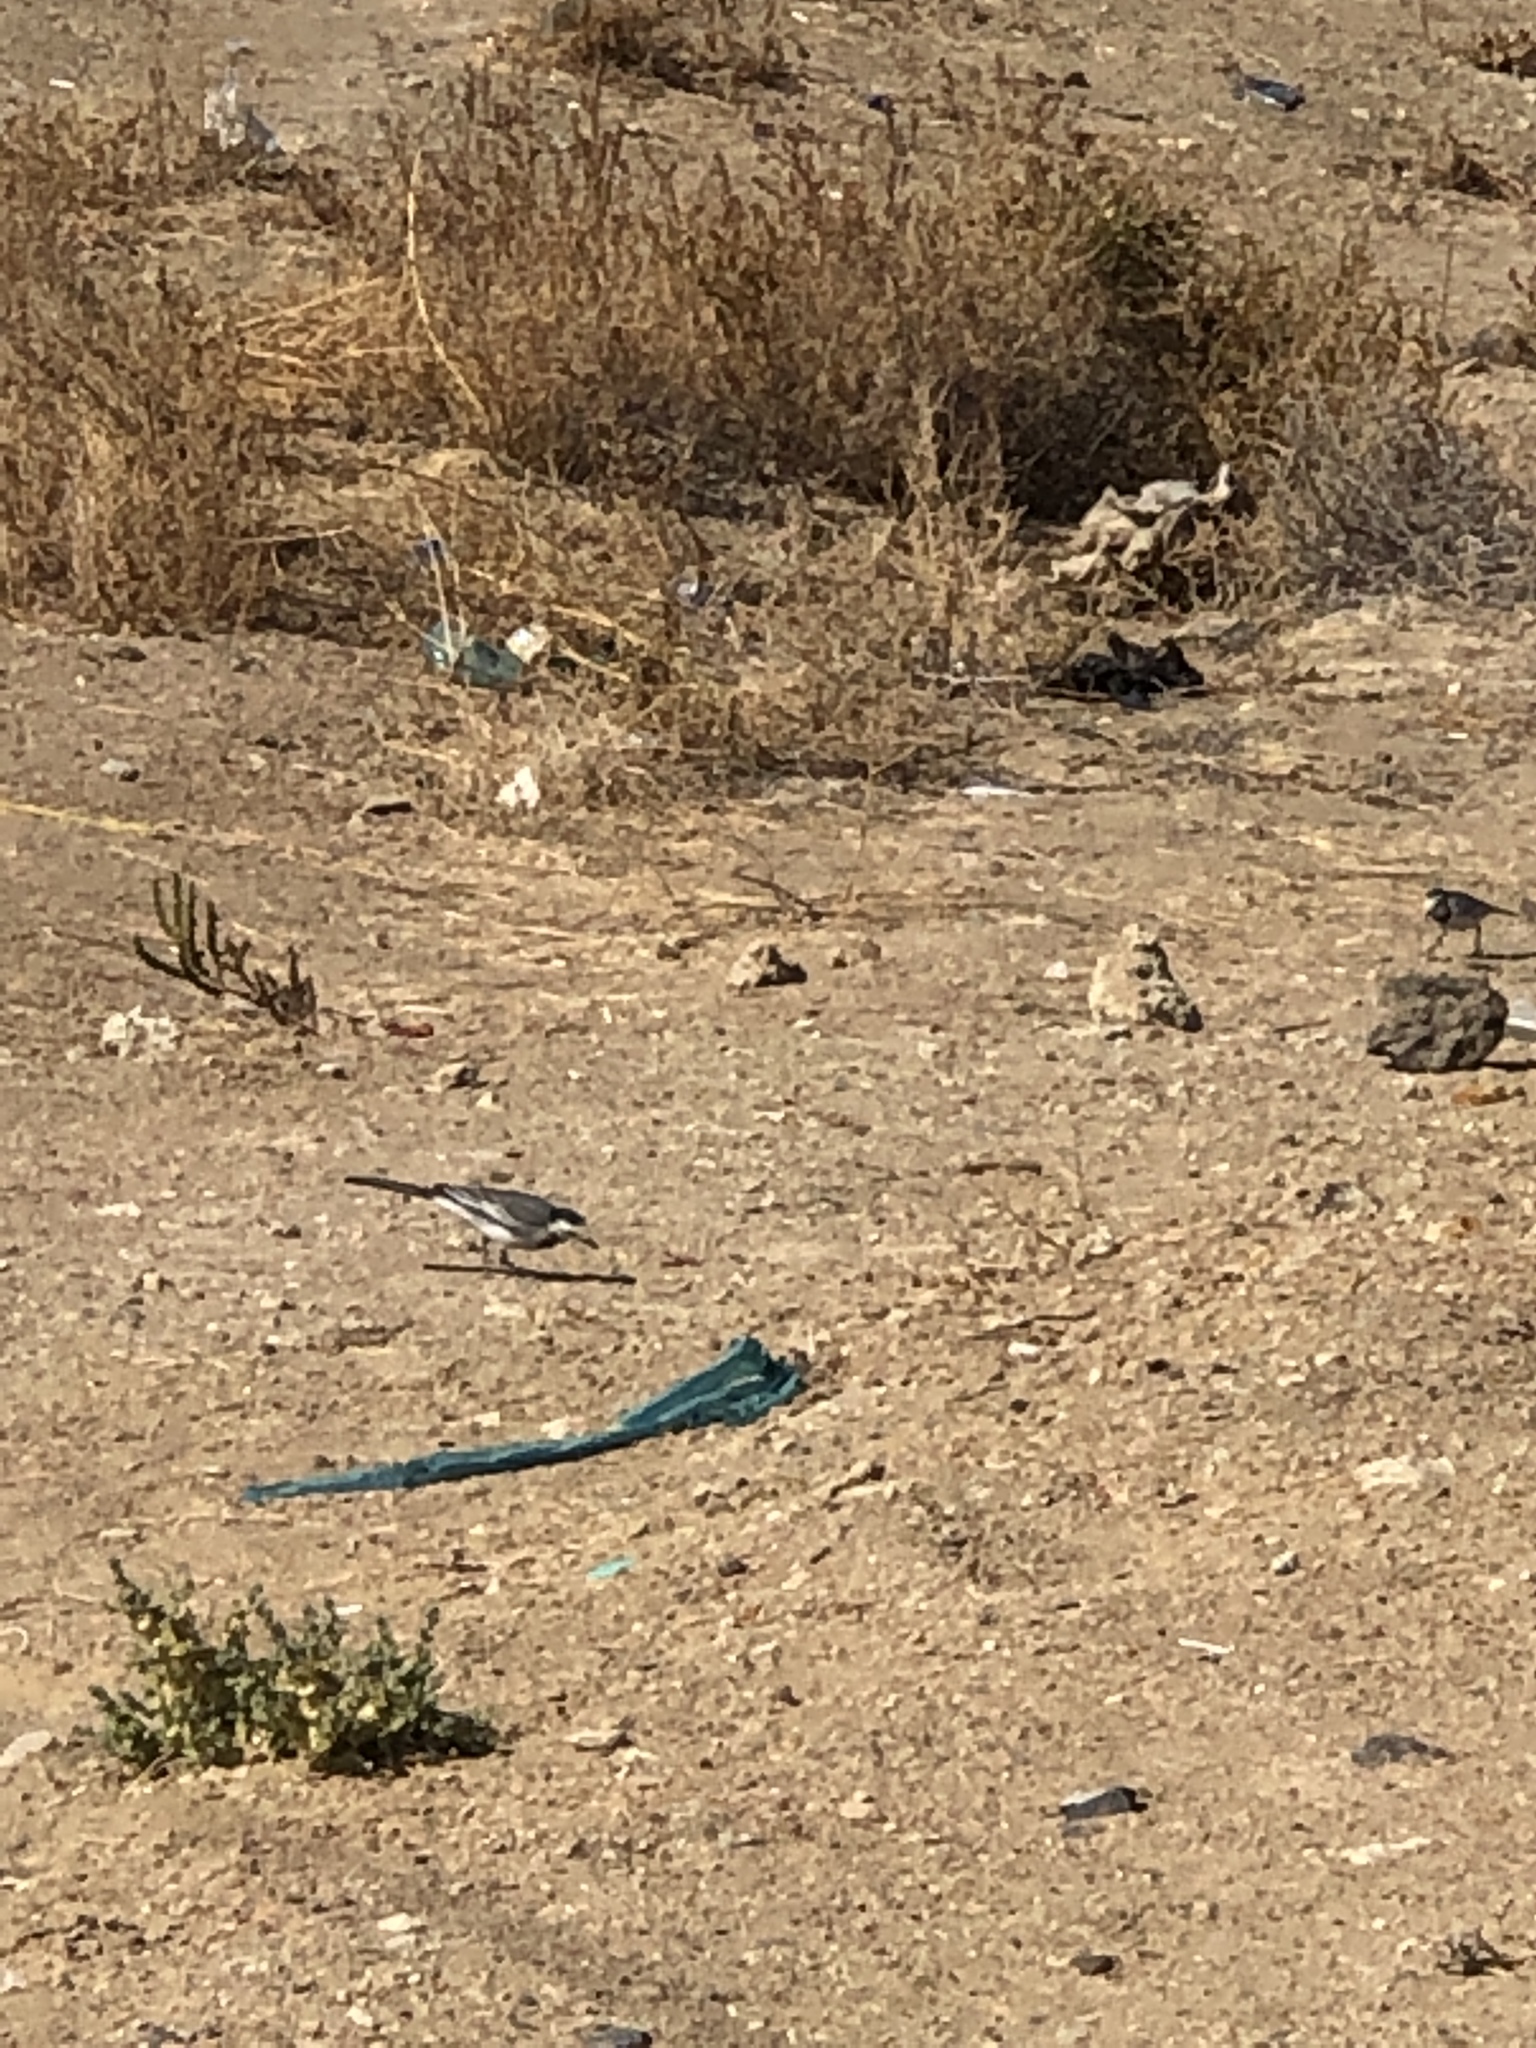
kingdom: Animalia
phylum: Chordata
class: Aves
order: Passeriformes
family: Motacillidae
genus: Motacilla
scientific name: Motacilla alba
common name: White wagtail
